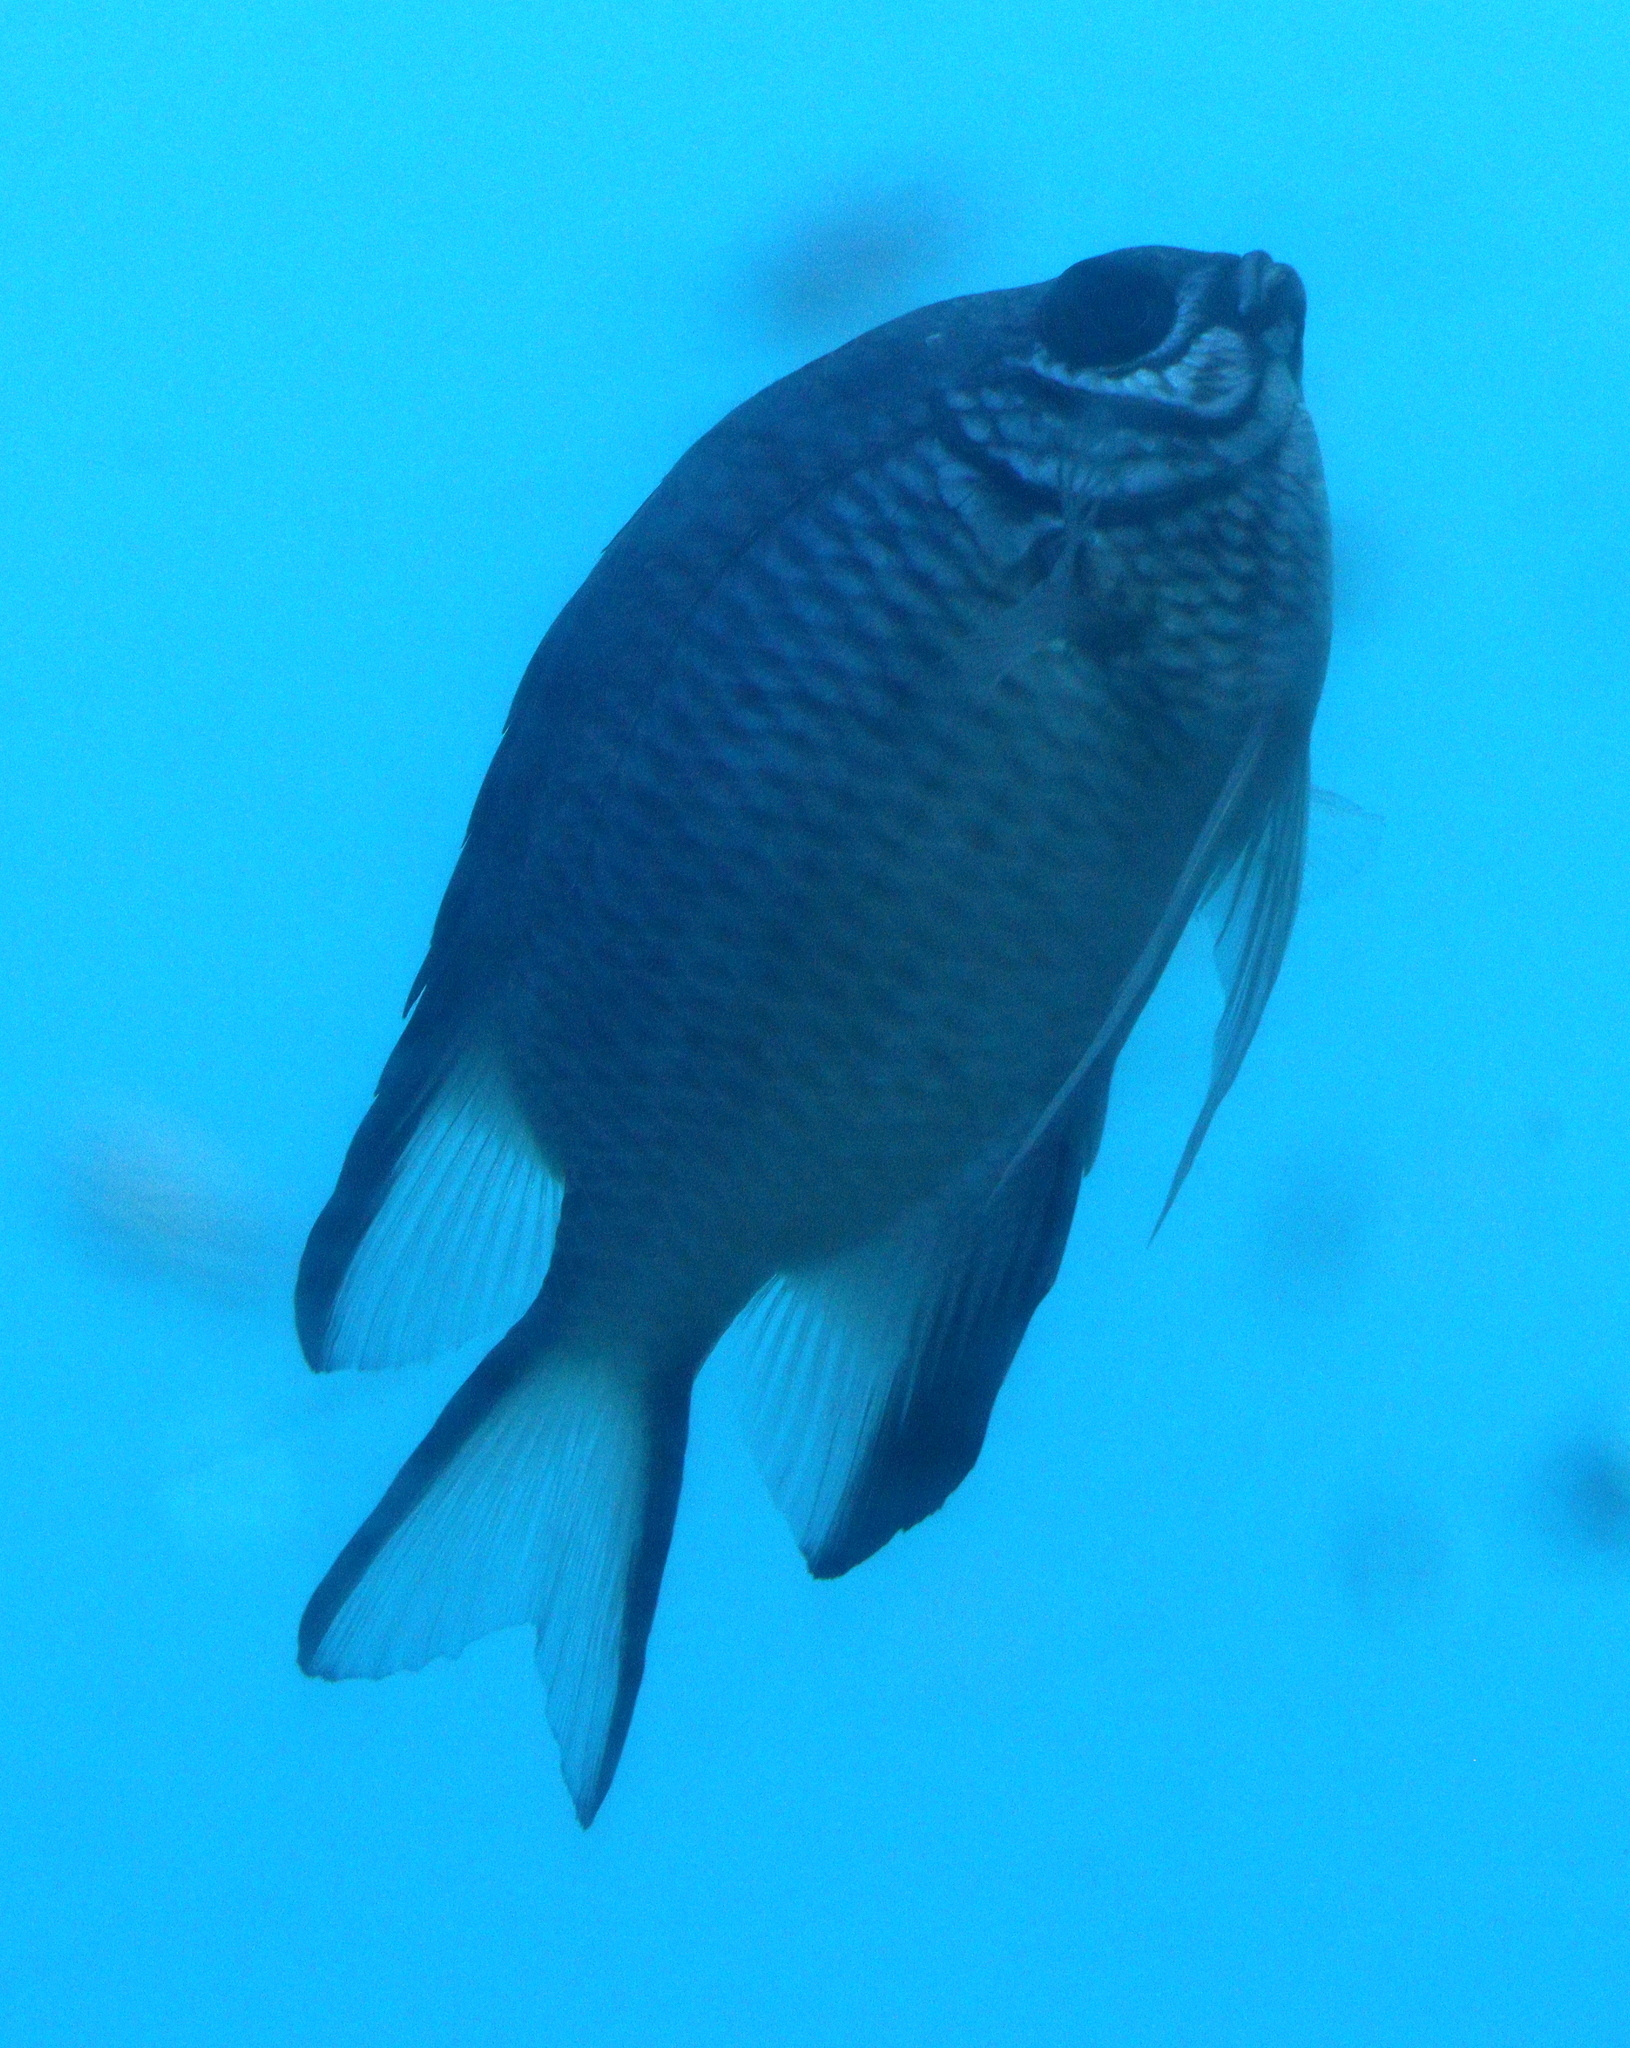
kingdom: Animalia
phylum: Chordata
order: Perciformes
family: Pomacentridae
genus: Amblyglyphidodon
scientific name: Amblyglyphidodon indicus
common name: Maldives damselfish
